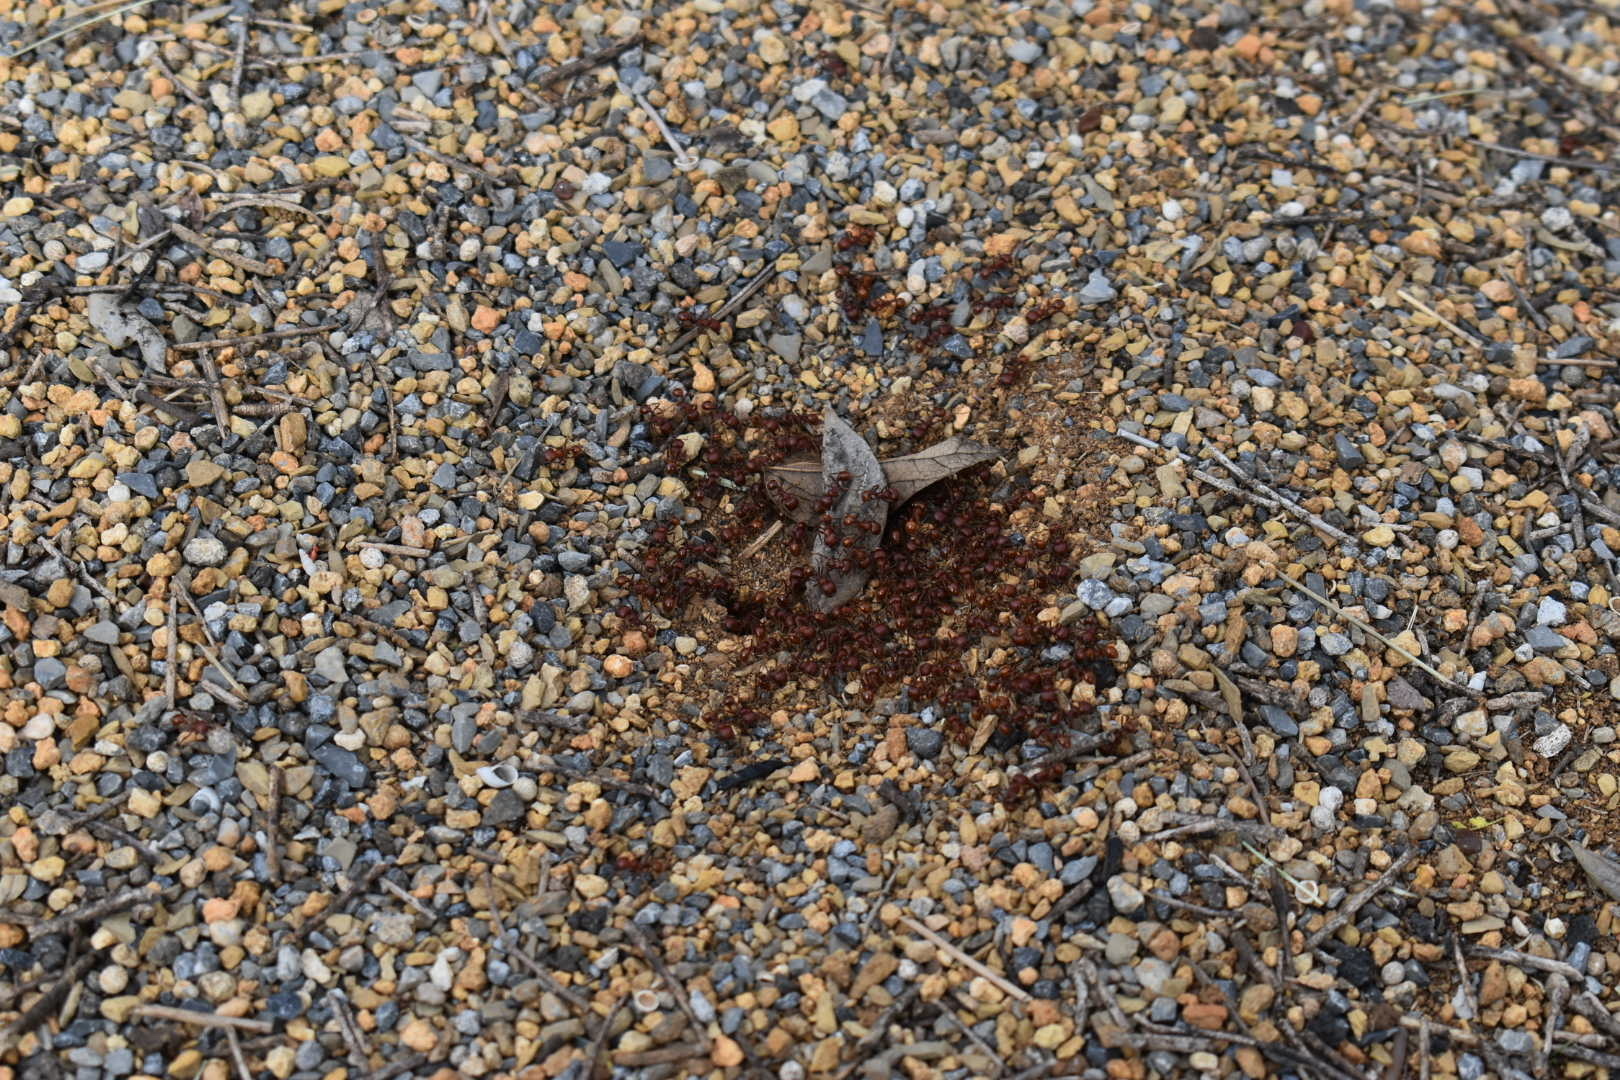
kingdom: Animalia
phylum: Arthropoda
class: Insecta
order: Hymenoptera
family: Formicidae
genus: Pogonomyrmex
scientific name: Pogonomyrmex barbatus
